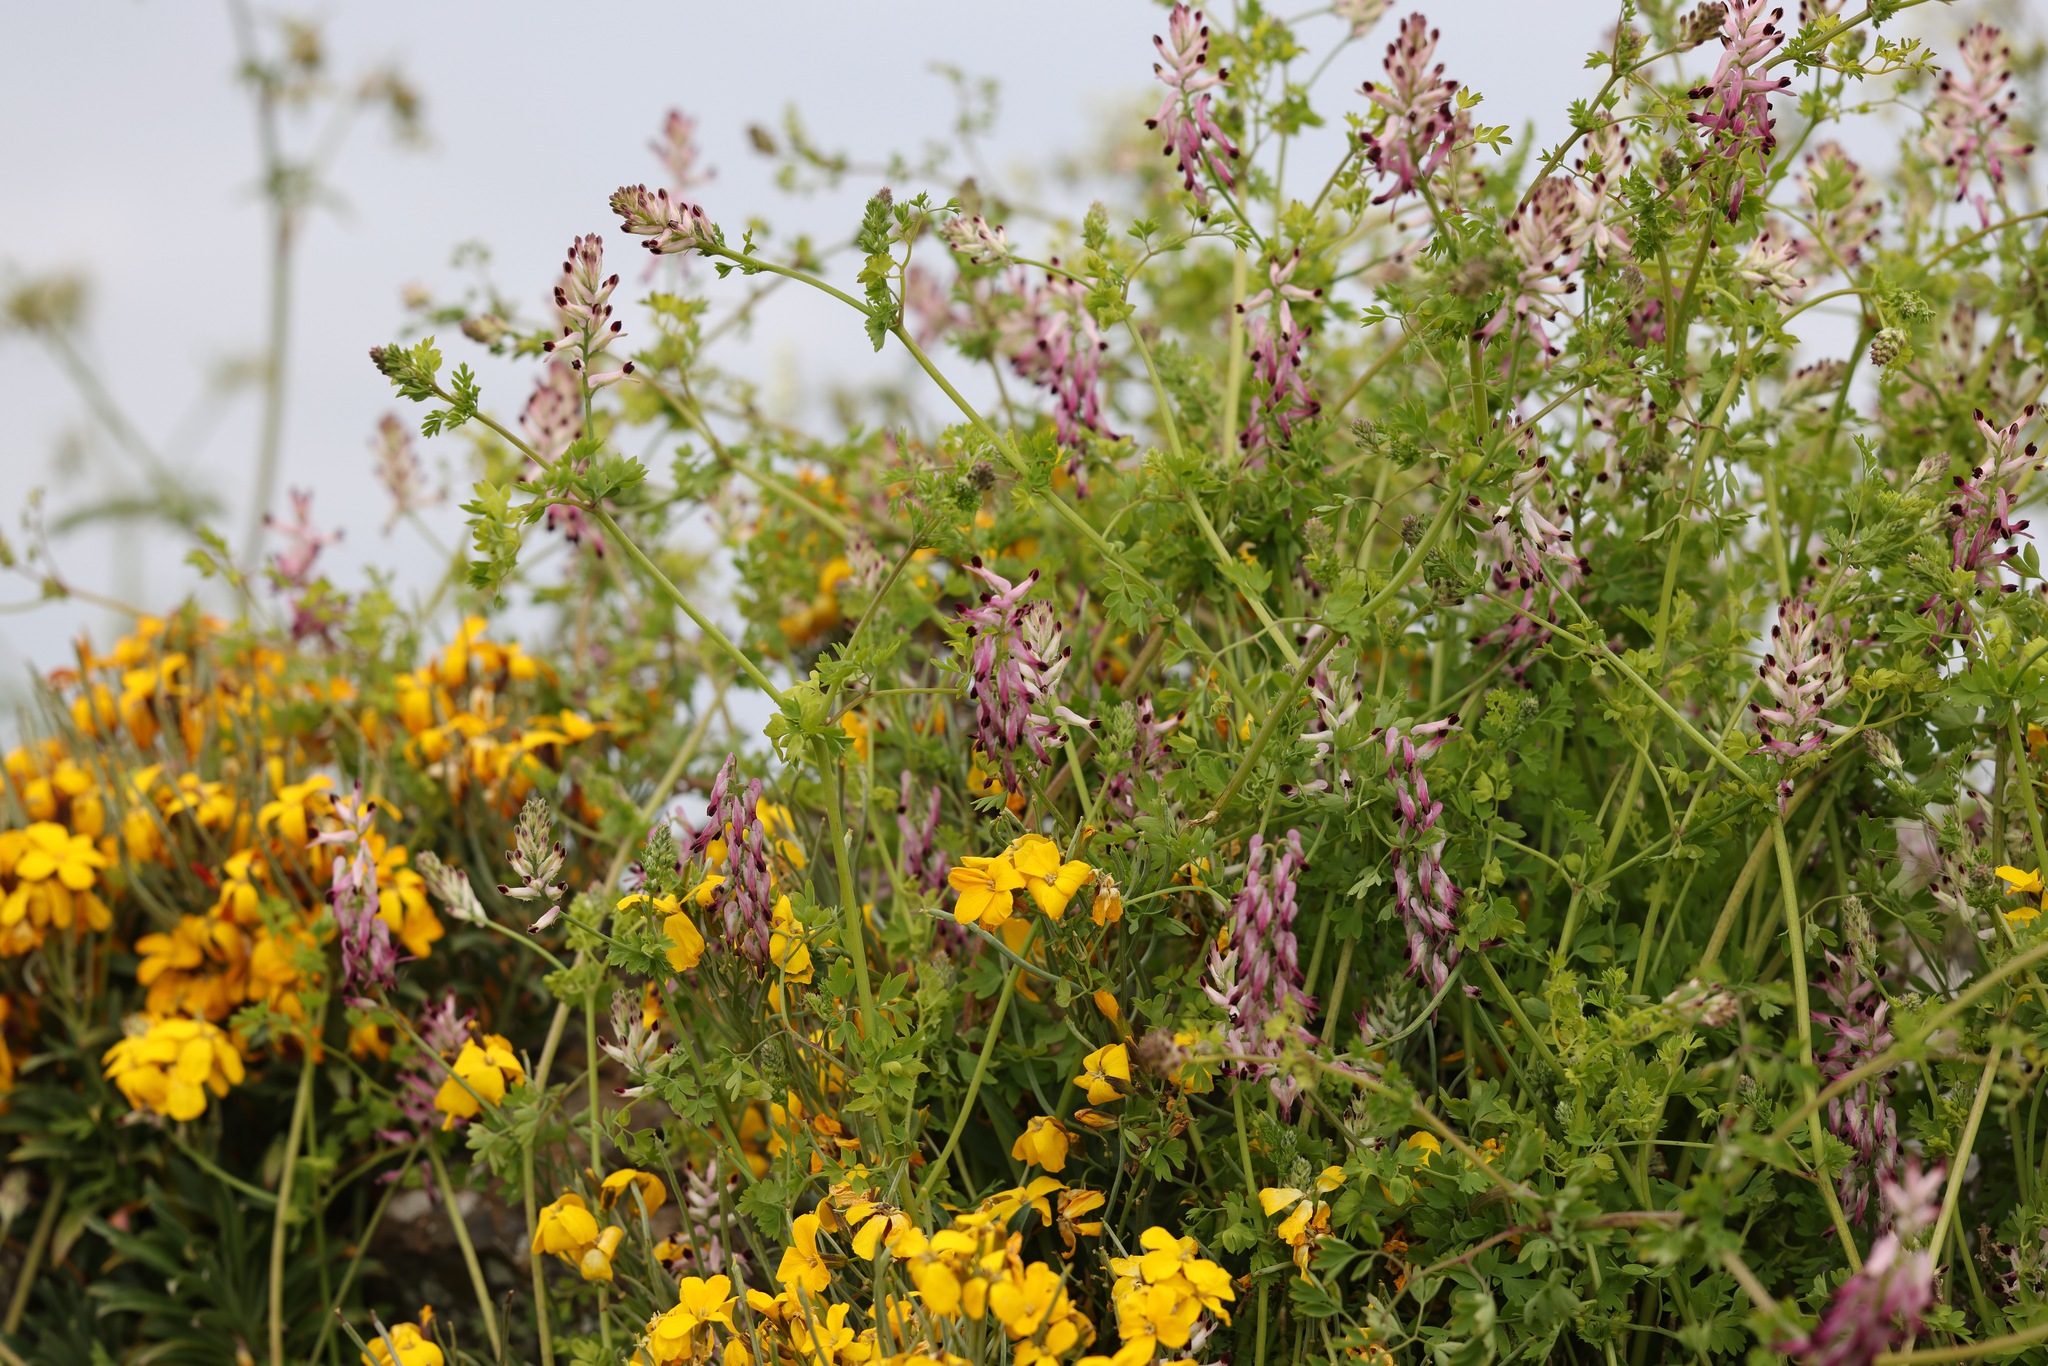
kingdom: Plantae
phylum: Tracheophyta
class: Magnoliopsida
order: Ranunculales
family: Papaveraceae
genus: Fumaria
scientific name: Fumaria muralis
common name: Common ramping-fumitory
